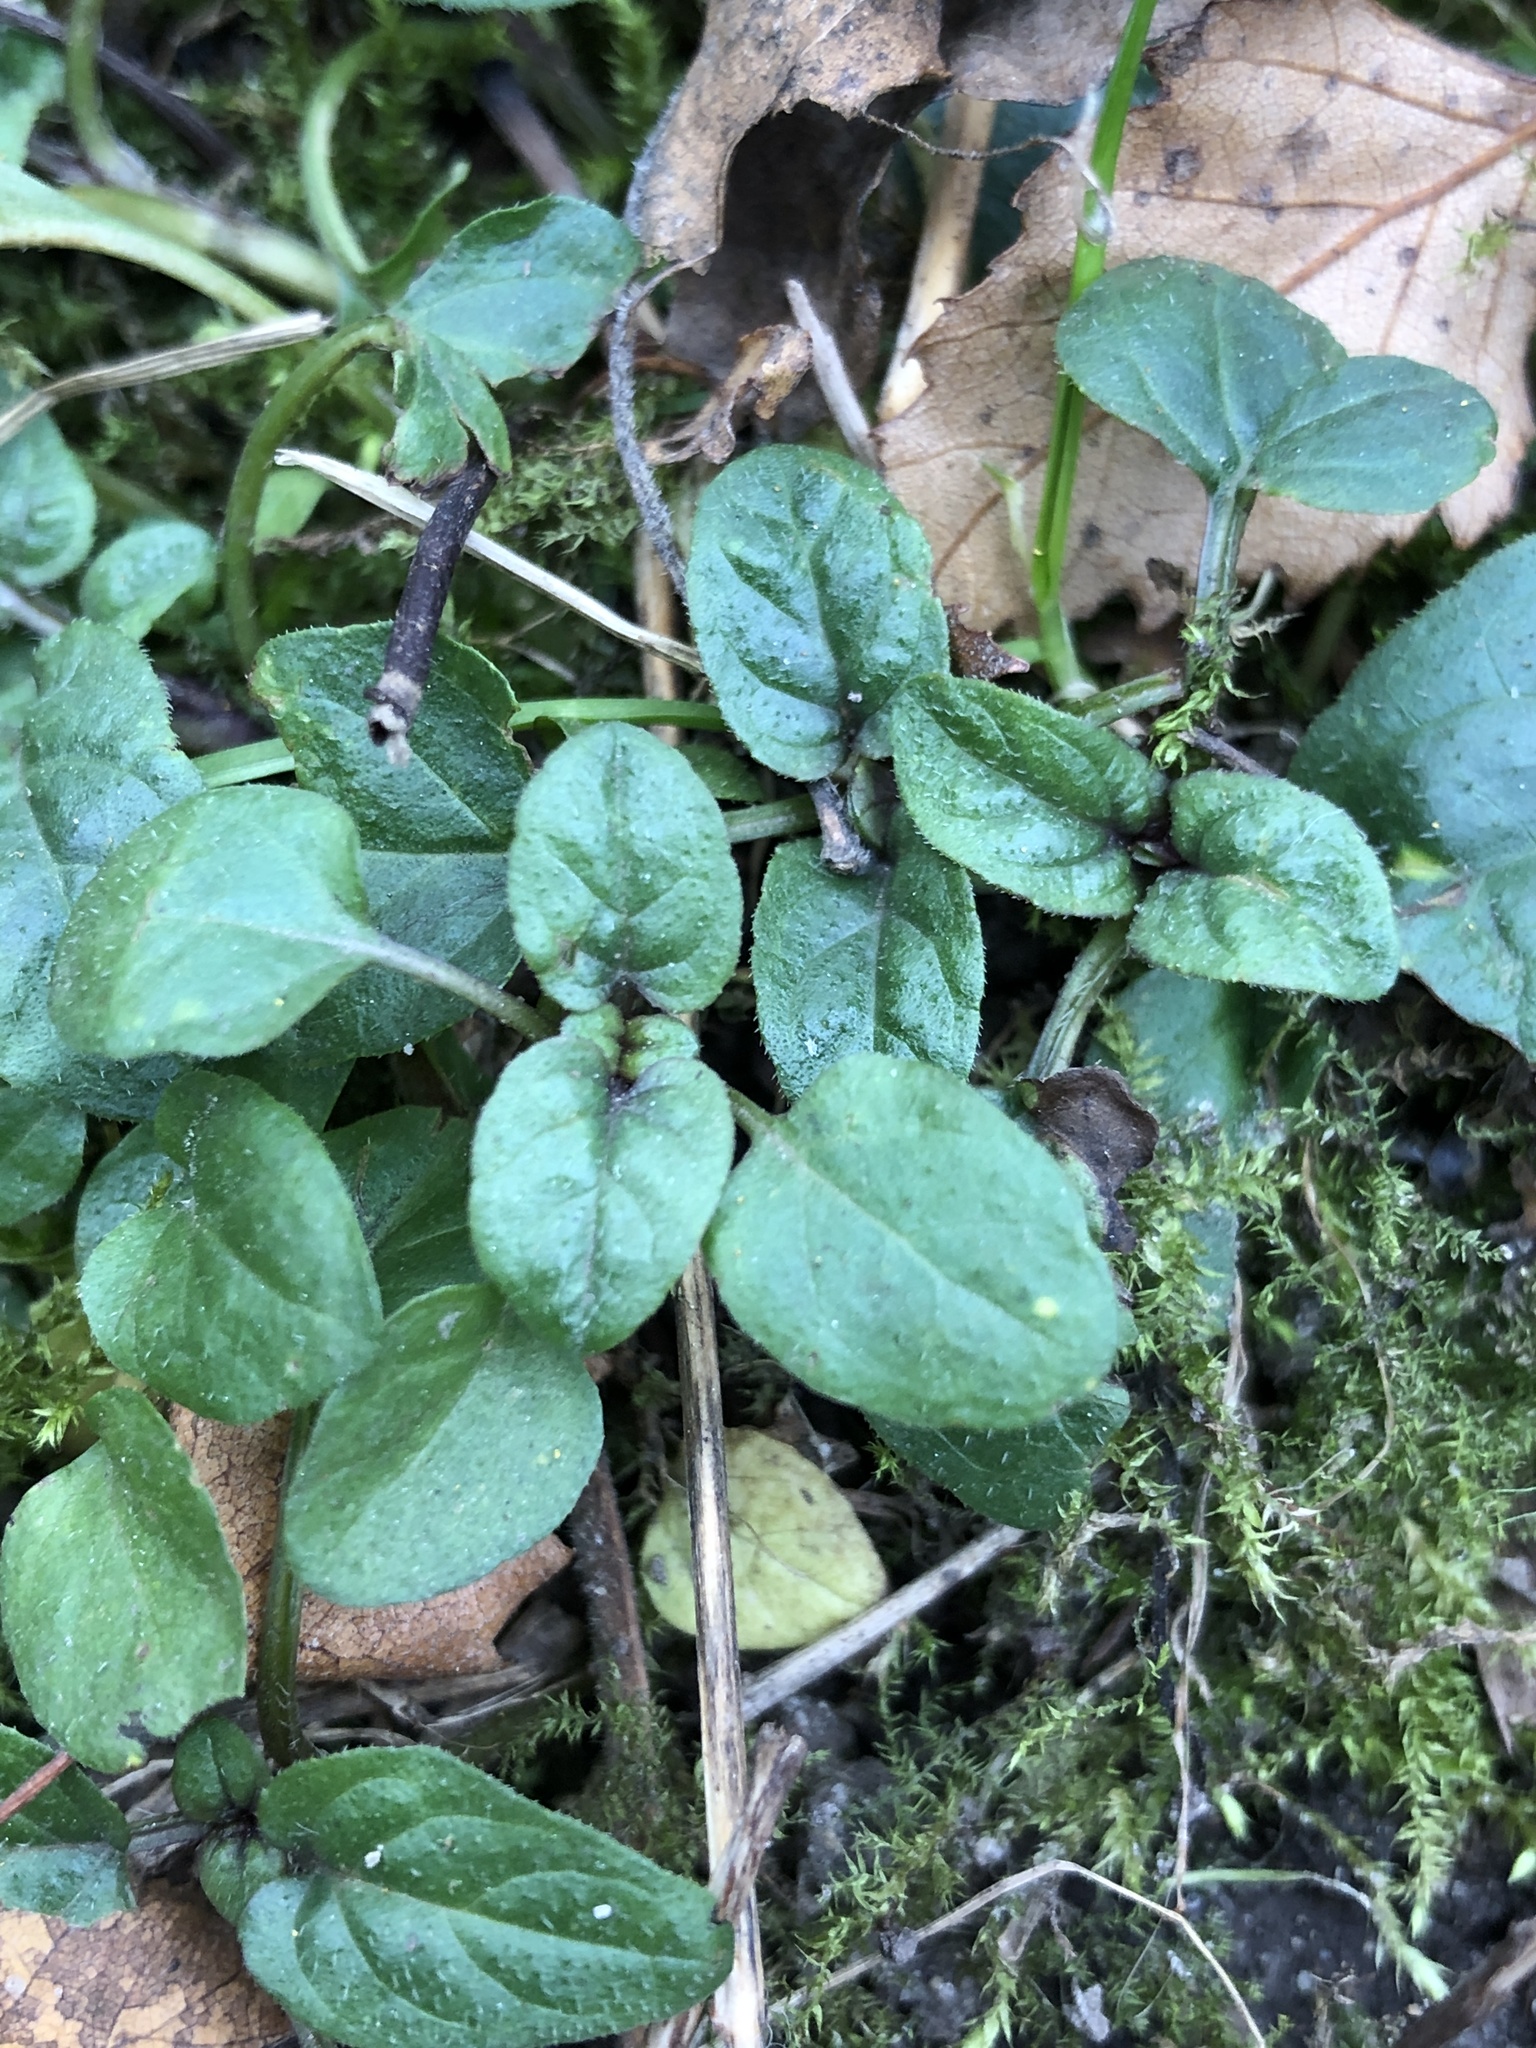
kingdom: Plantae
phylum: Tracheophyta
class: Magnoliopsida
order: Lamiales
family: Lamiaceae
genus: Prunella
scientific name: Prunella vulgaris
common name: Heal-all
